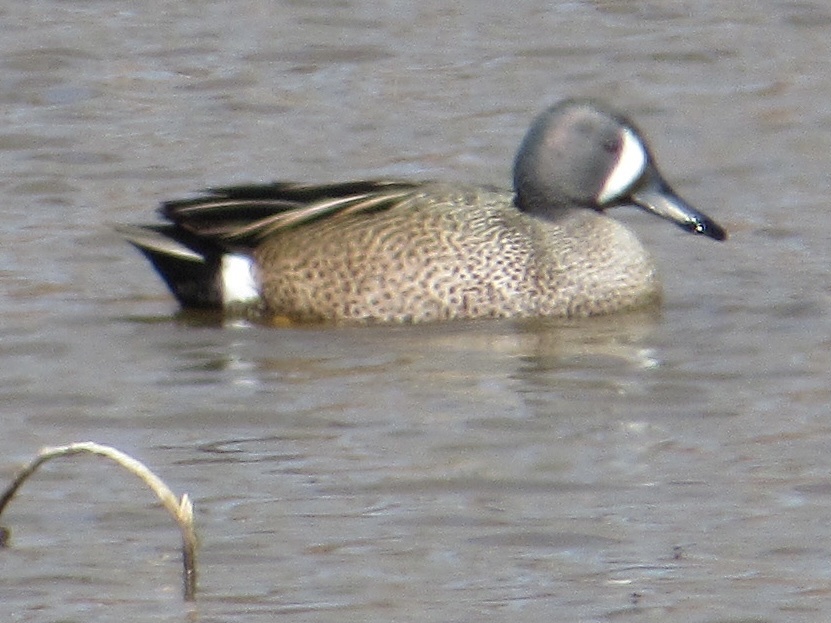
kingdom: Animalia
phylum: Chordata
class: Aves
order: Anseriformes
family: Anatidae
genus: Spatula
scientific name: Spatula discors
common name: Blue-winged teal
